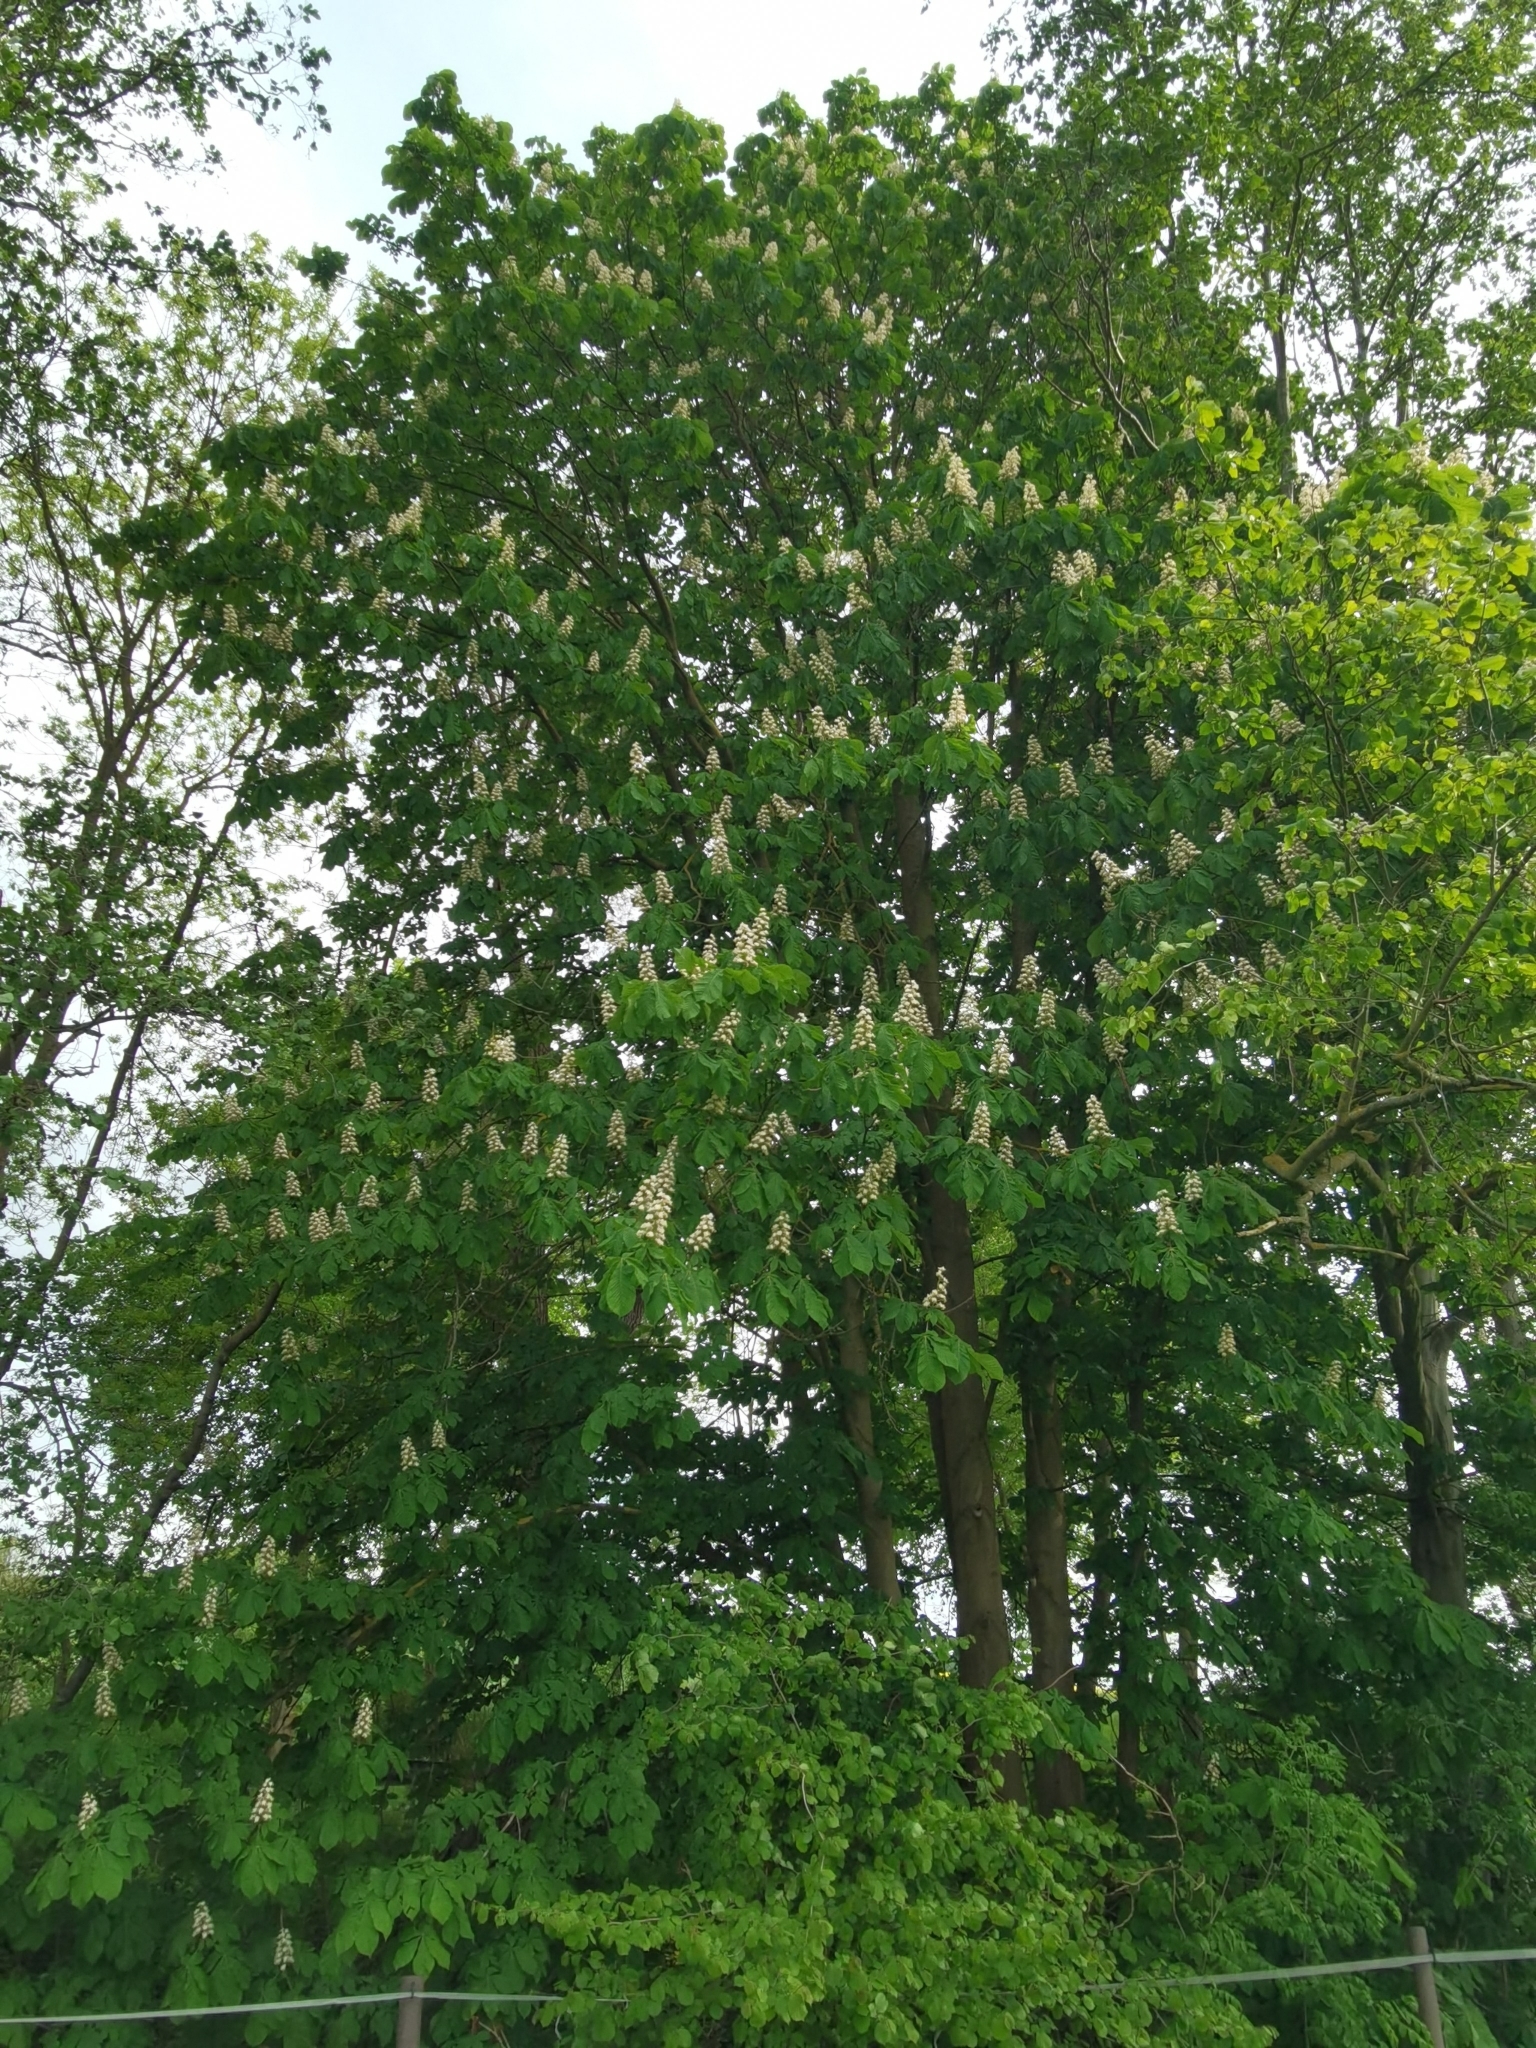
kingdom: Plantae
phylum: Tracheophyta
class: Magnoliopsida
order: Sapindales
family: Sapindaceae
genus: Aesculus
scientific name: Aesculus hippocastanum
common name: Horse-chestnut
